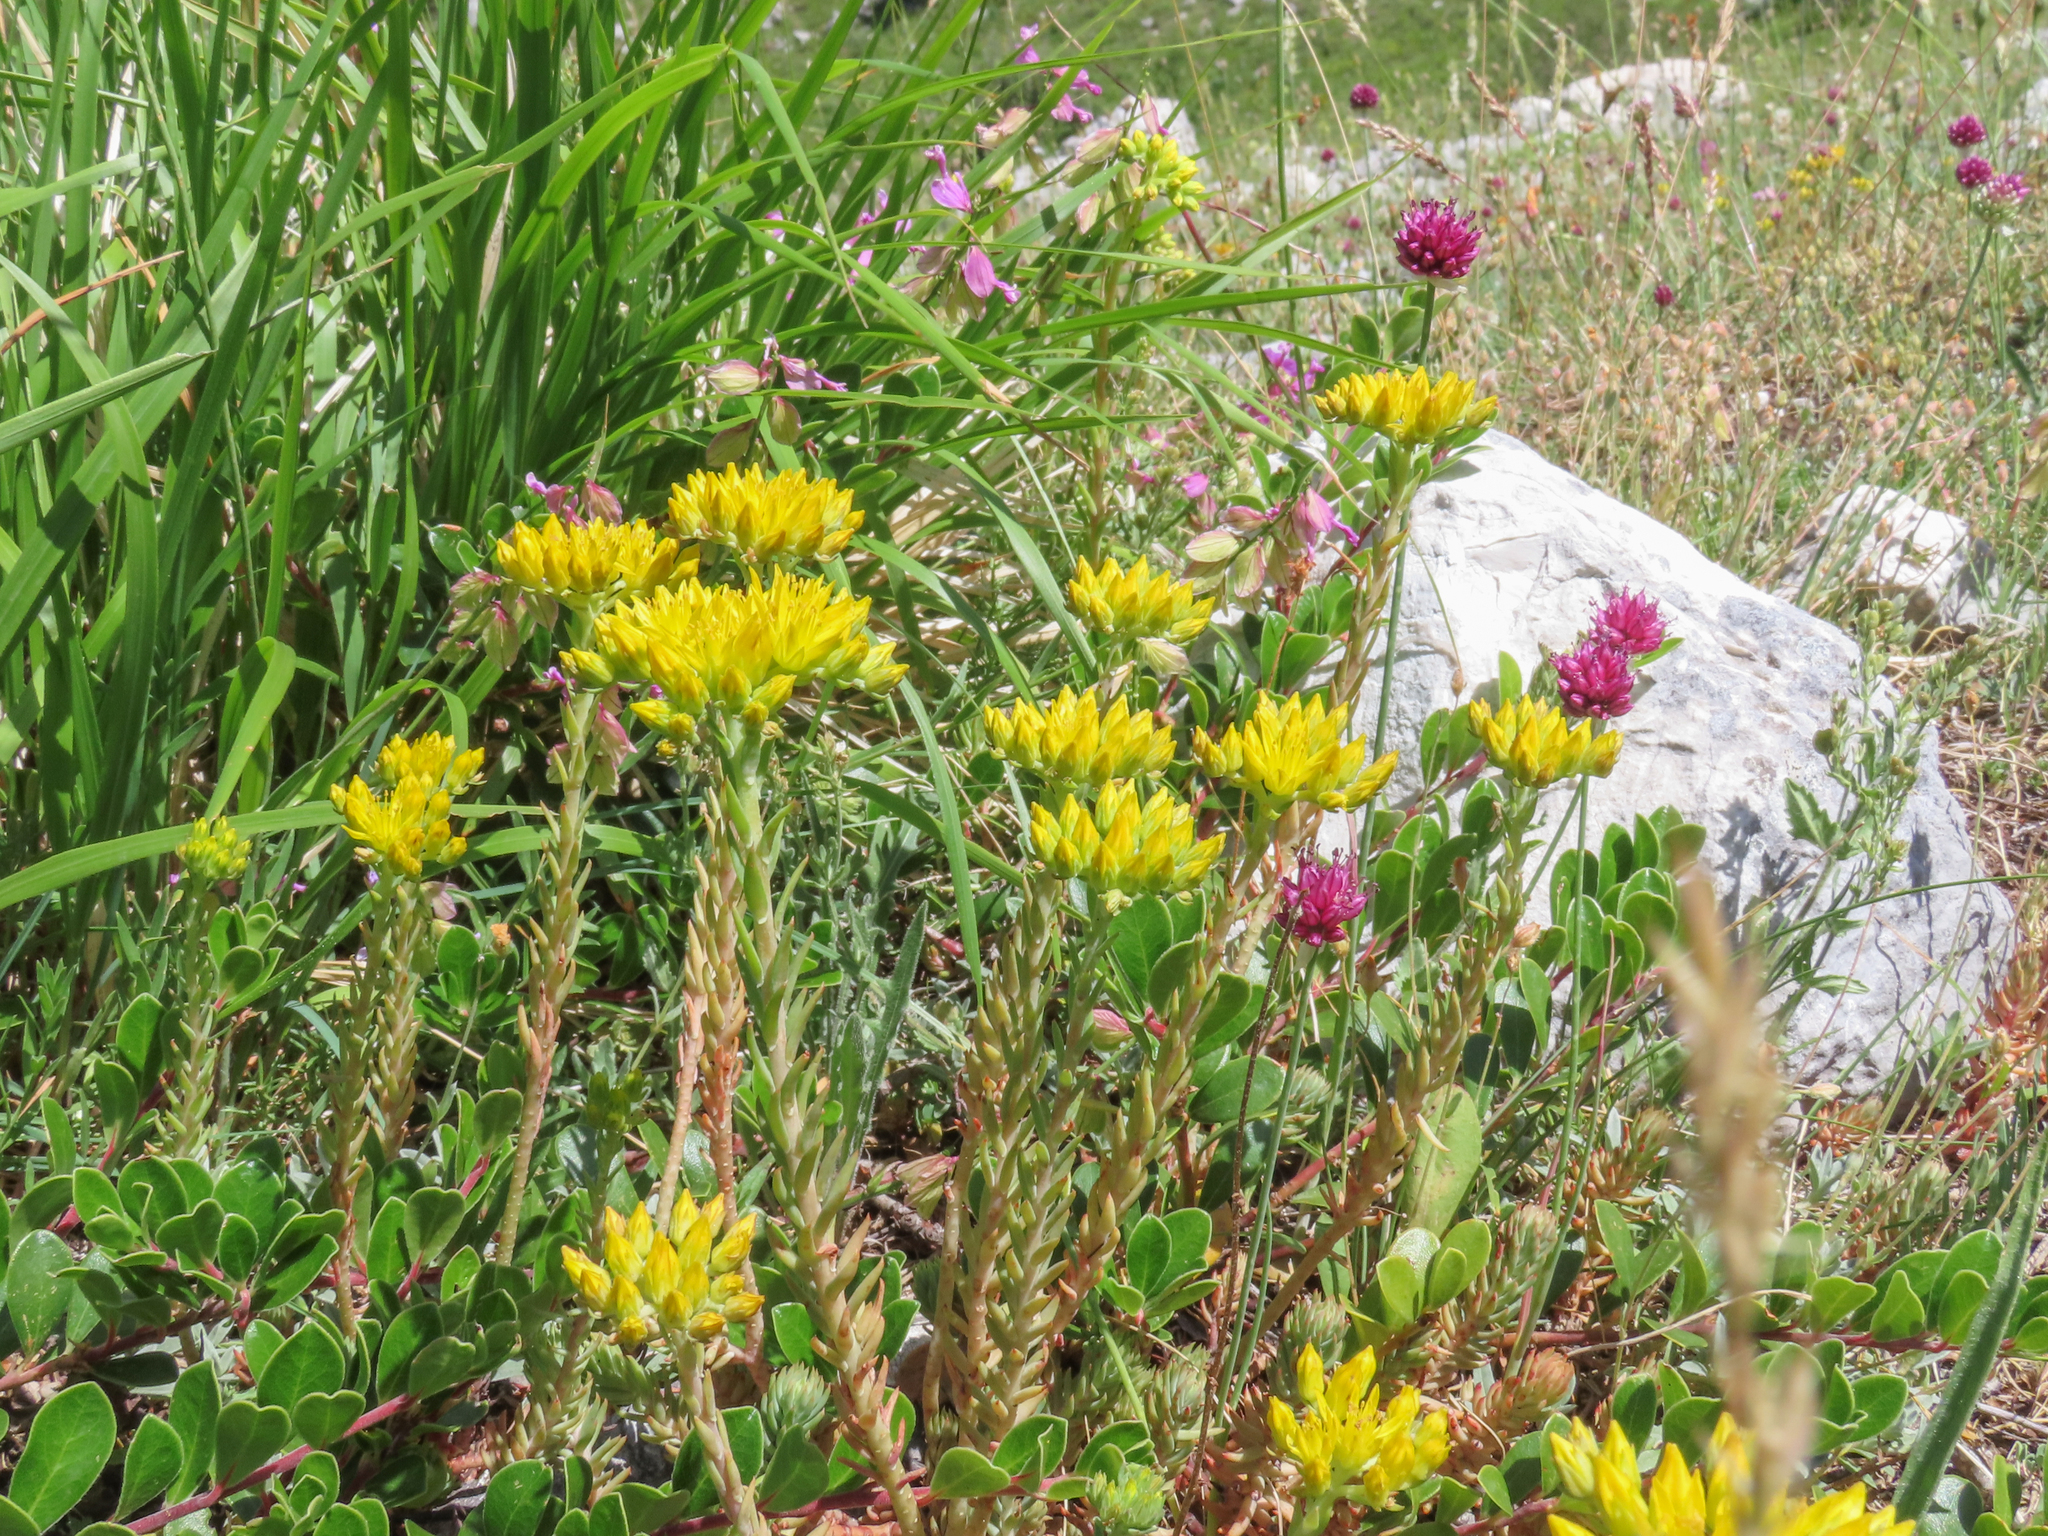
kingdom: Plantae
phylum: Tracheophyta
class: Magnoliopsida
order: Saxifragales
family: Crassulaceae
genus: Petrosedum
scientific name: Petrosedum montanum
